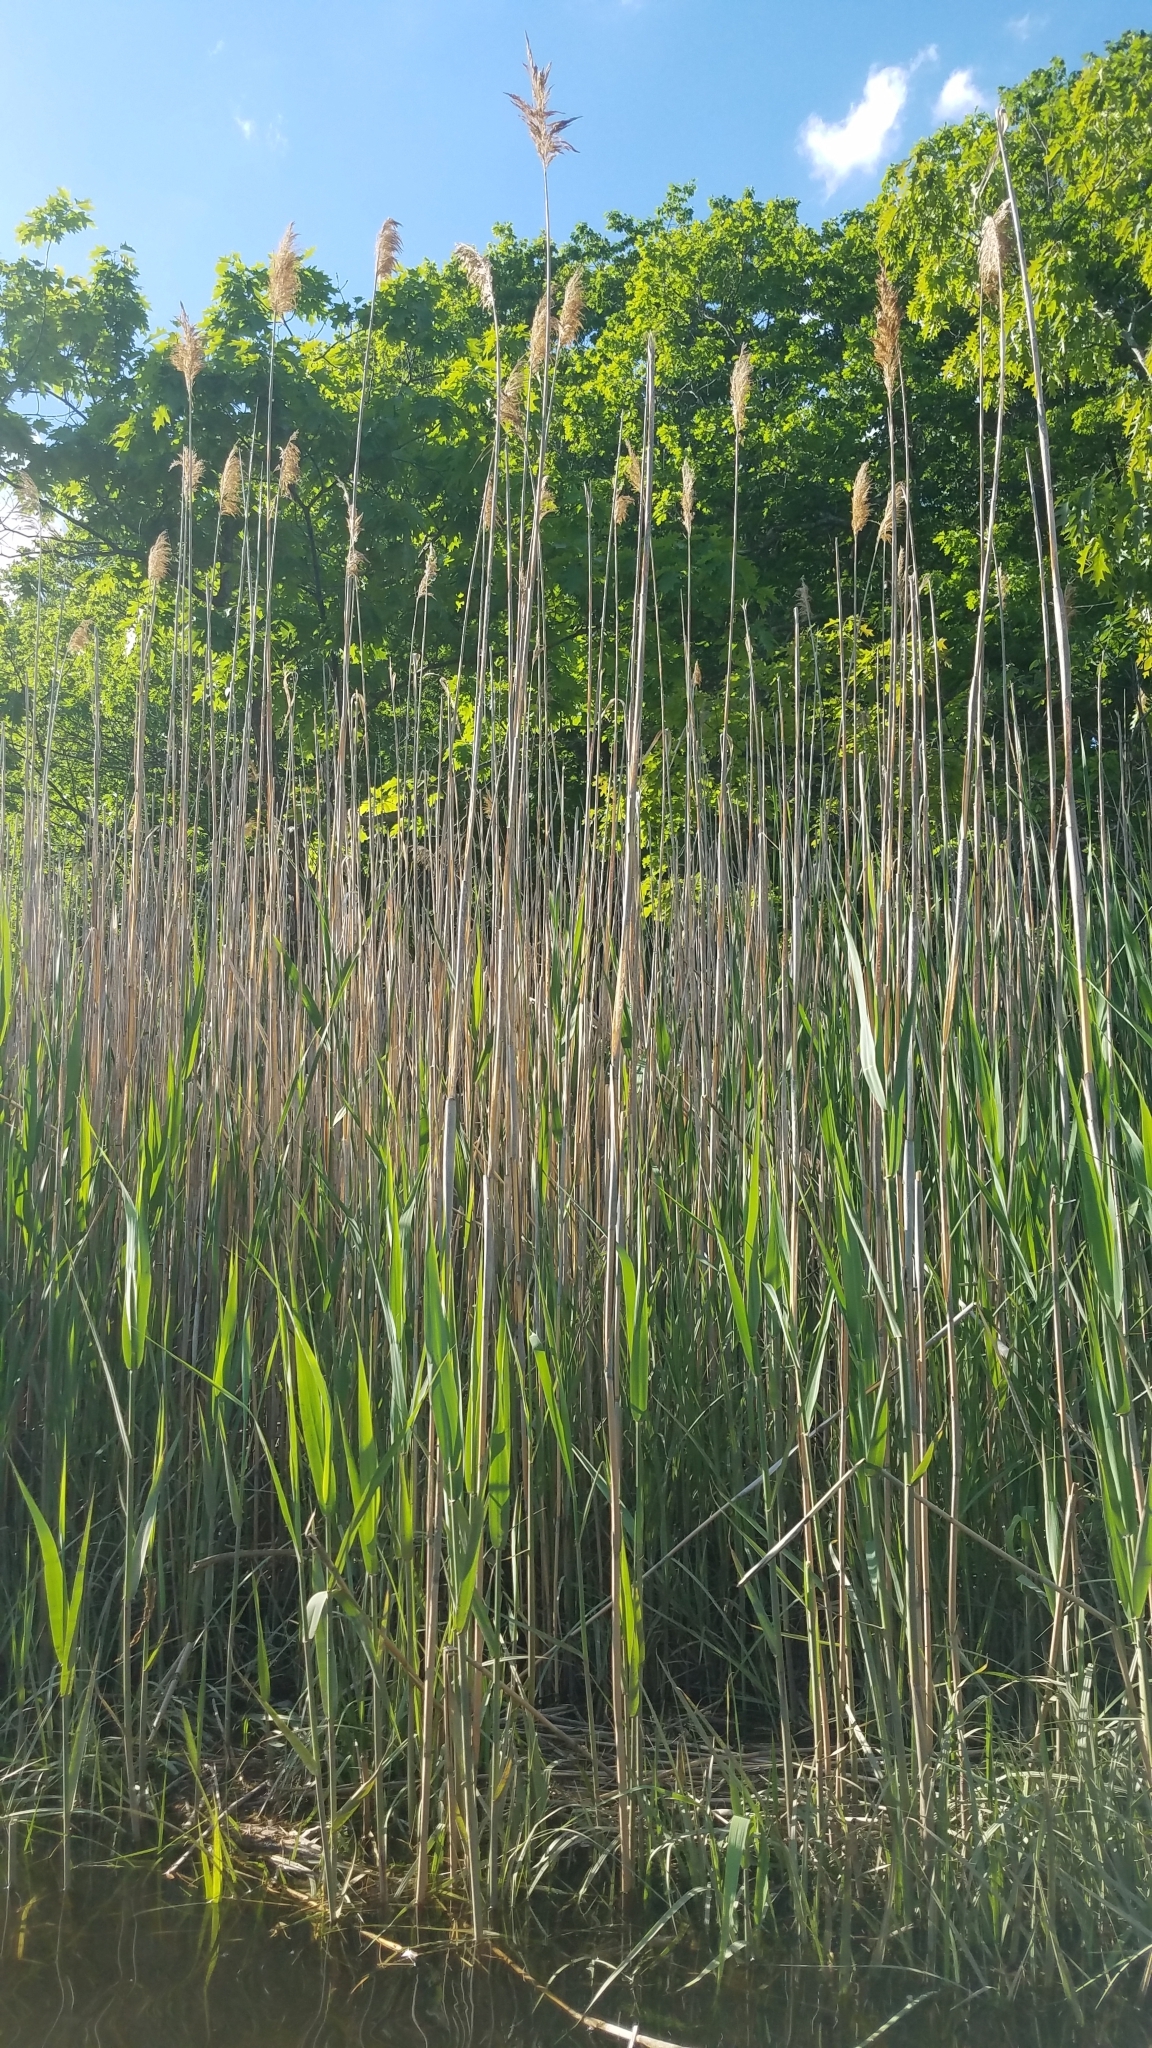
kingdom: Plantae
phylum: Tracheophyta
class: Liliopsida
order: Poales
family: Poaceae
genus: Phragmites
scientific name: Phragmites australis
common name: Common reed
